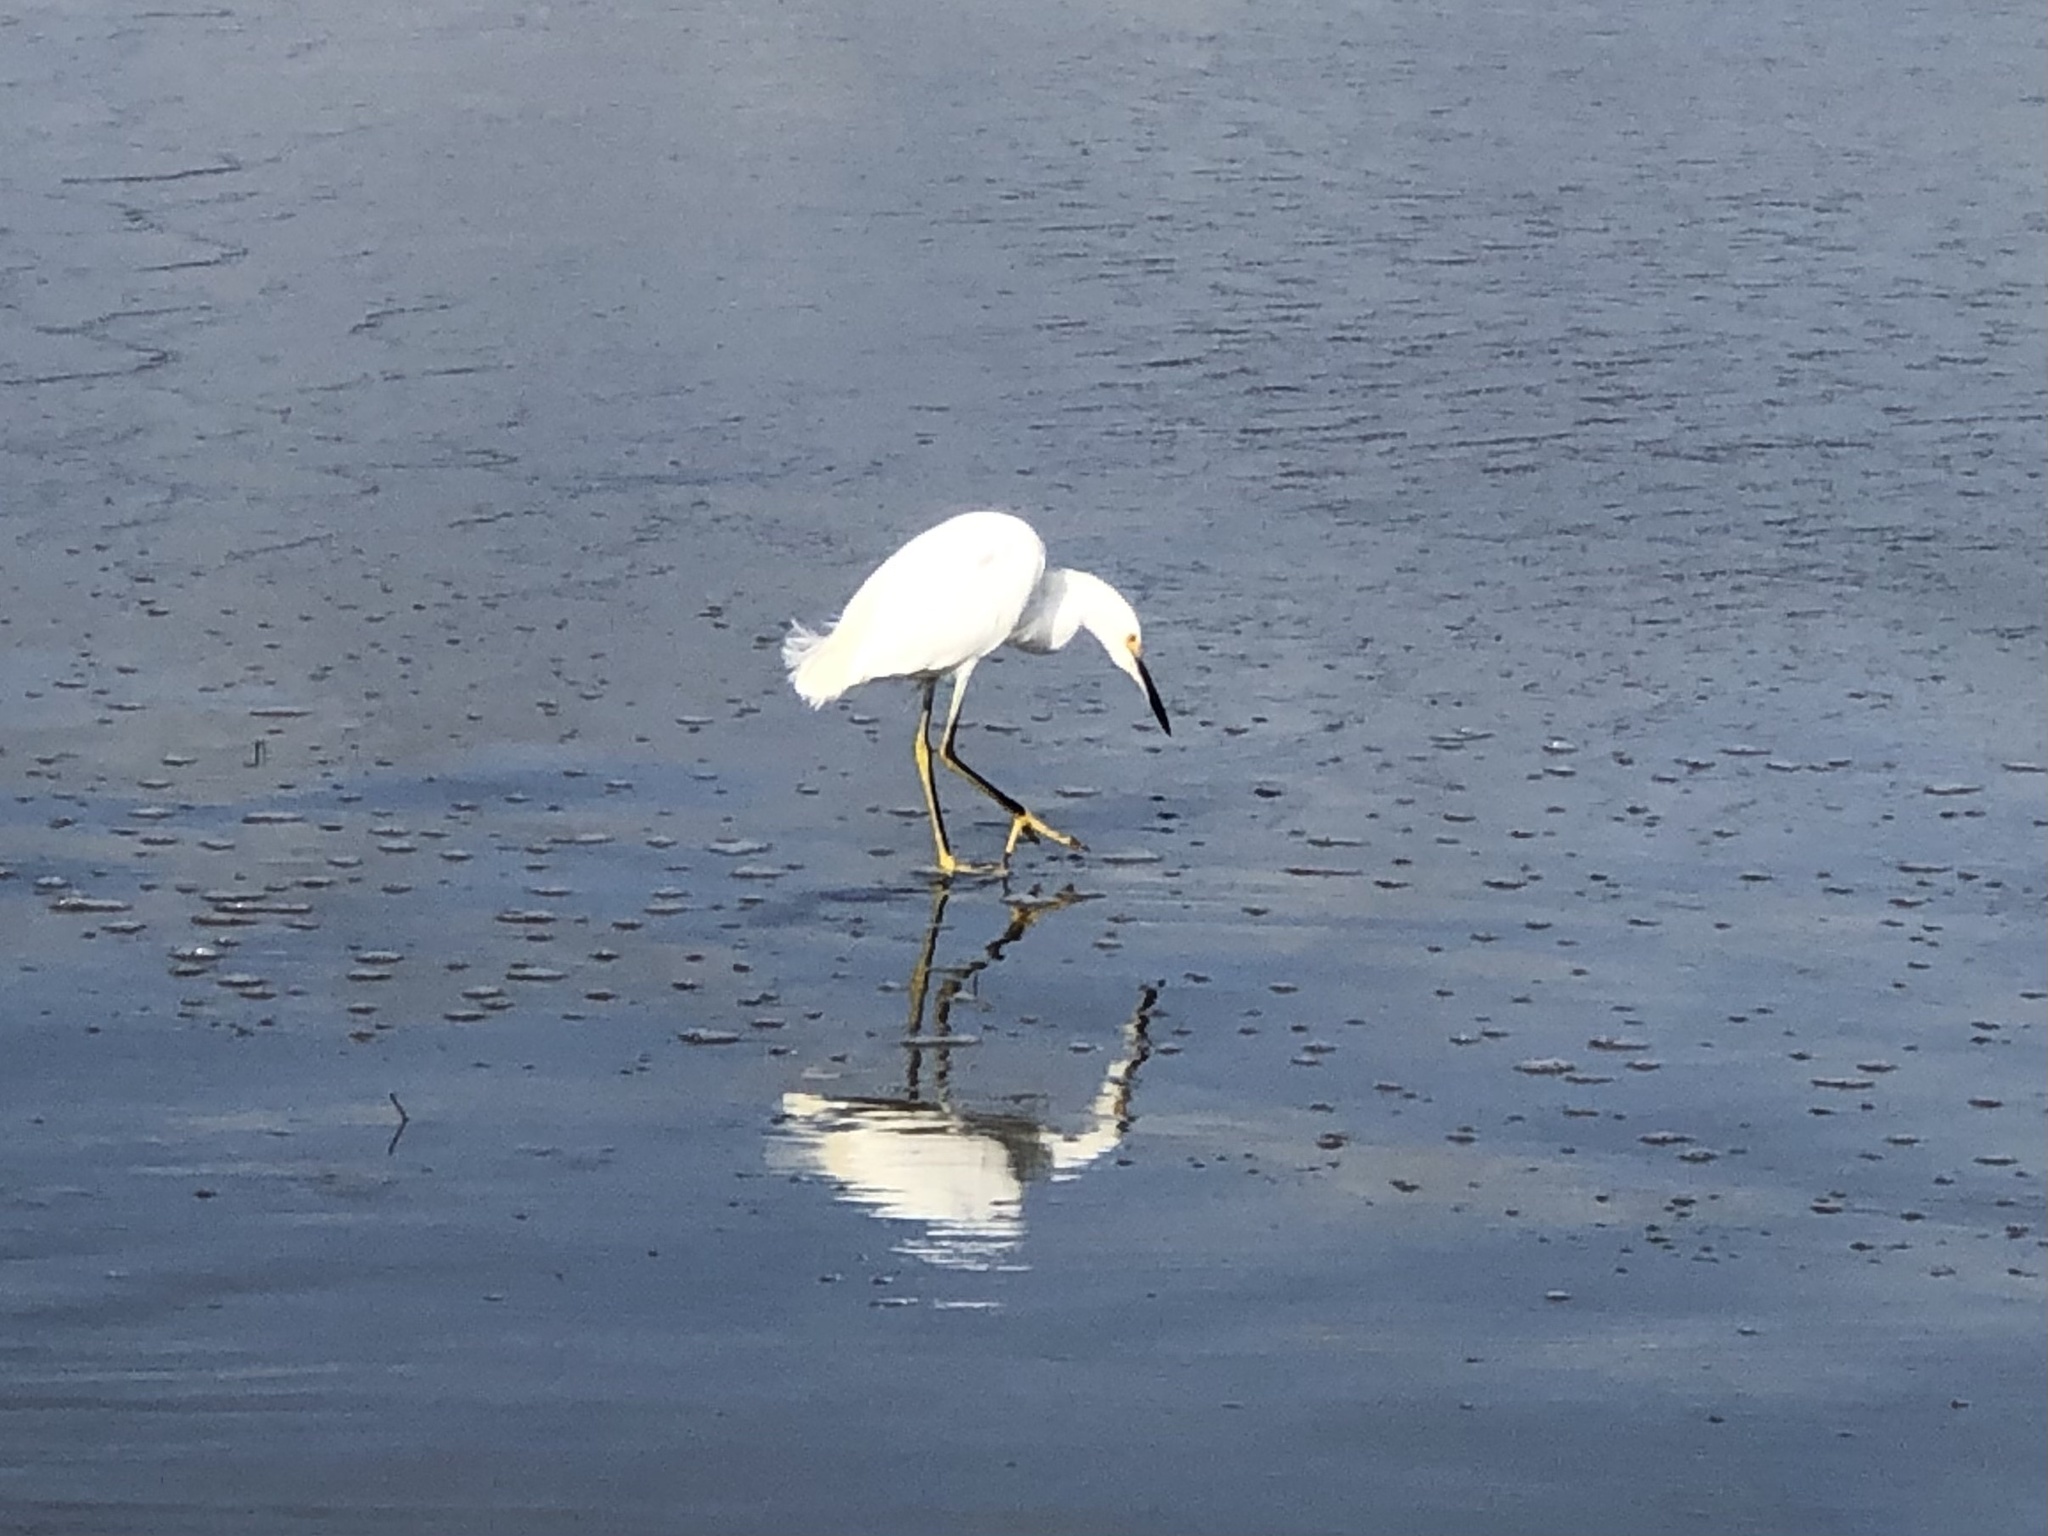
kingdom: Animalia
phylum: Chordata
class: Aves
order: Pelecaniformes
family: Ardeidae
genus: Egretta
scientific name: Egretta thula
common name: Snowy egret
